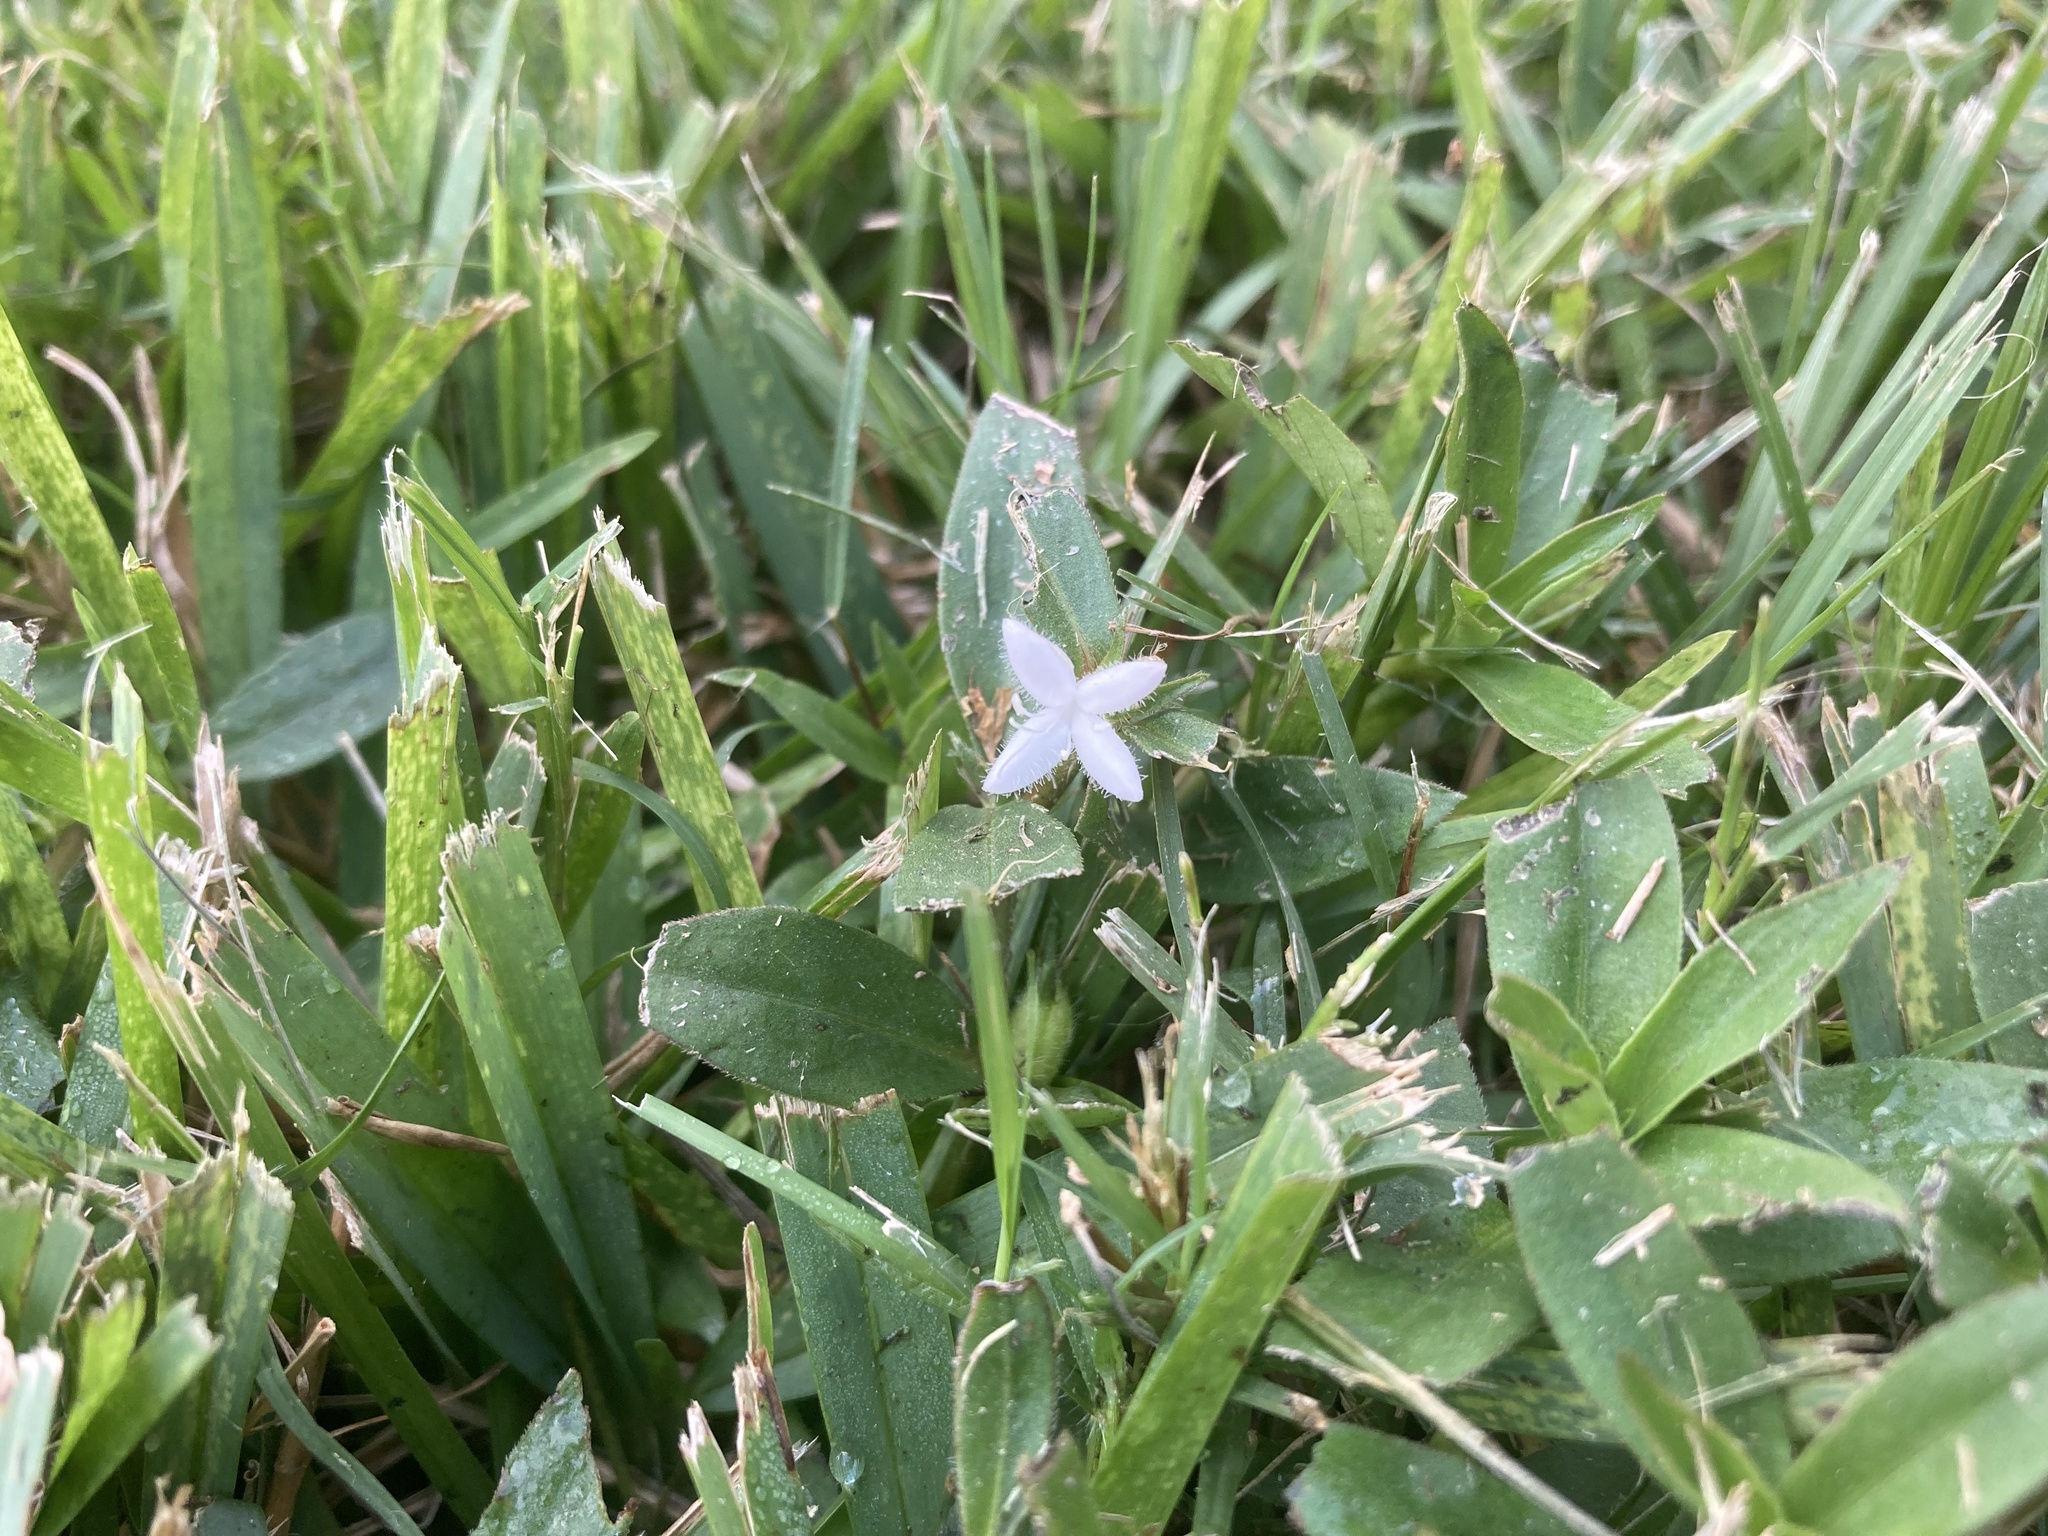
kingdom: Plantae
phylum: Tracheophyta
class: Magnoliopsida
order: Gentianales
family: Rubiaceae
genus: Diodia
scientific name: Diodia virginiana
